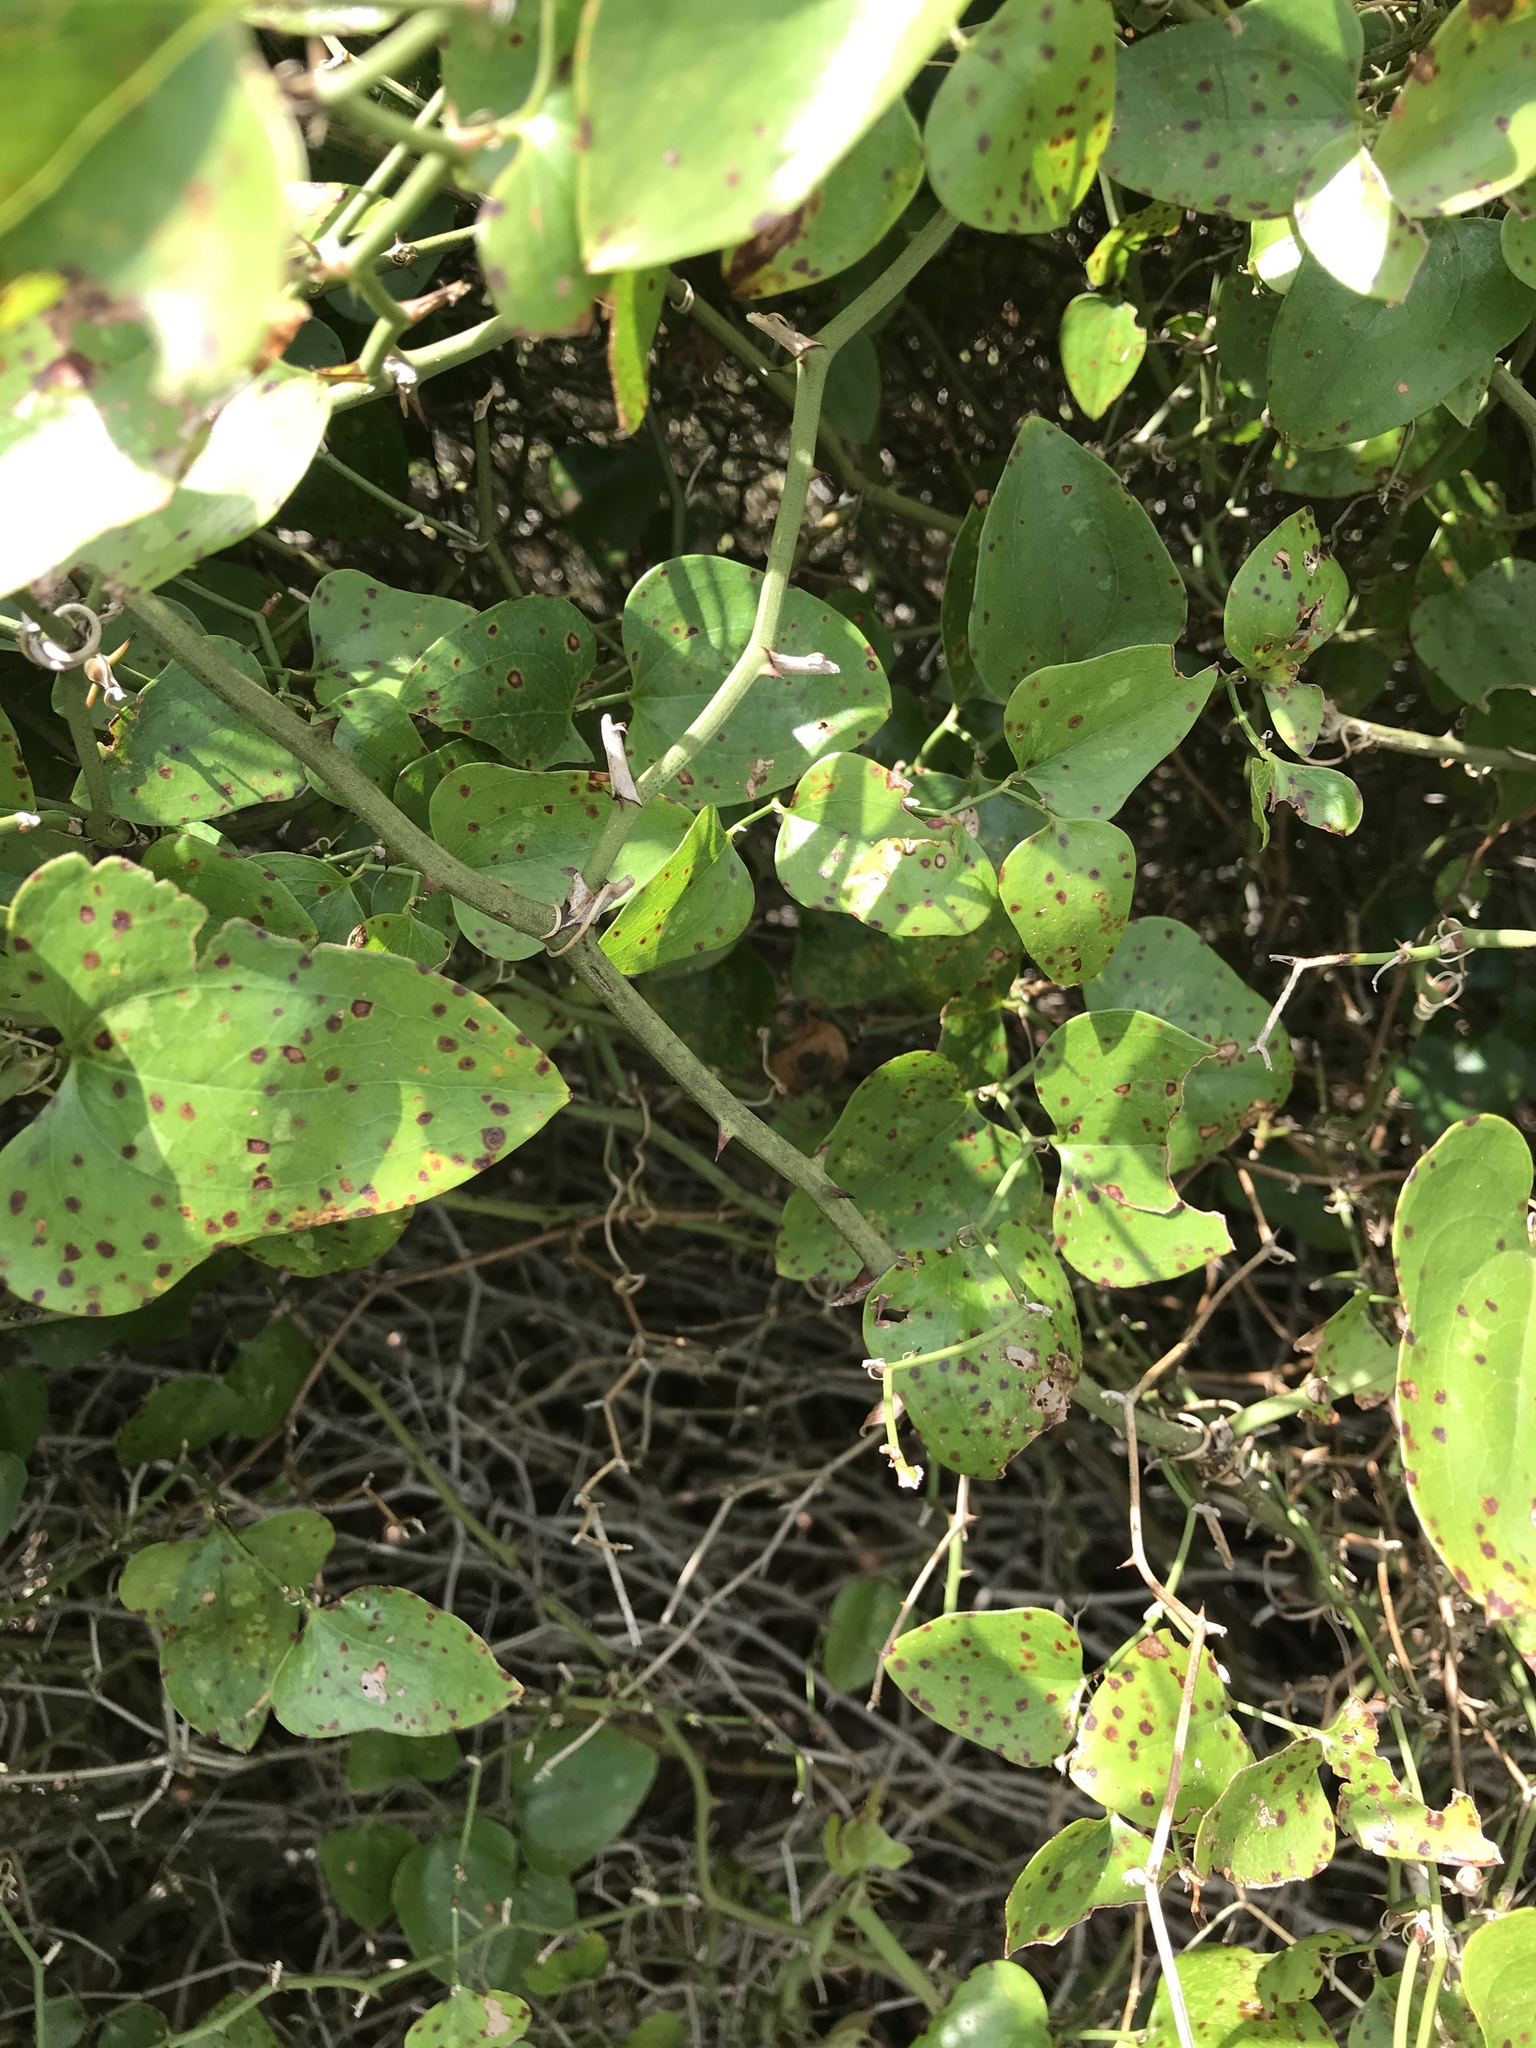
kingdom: Plantae
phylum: Tracheophyta
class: Liliopsida
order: Liliales
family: Smilacaceae
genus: Smilax
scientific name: Smilax bona-nox
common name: Catbrier
